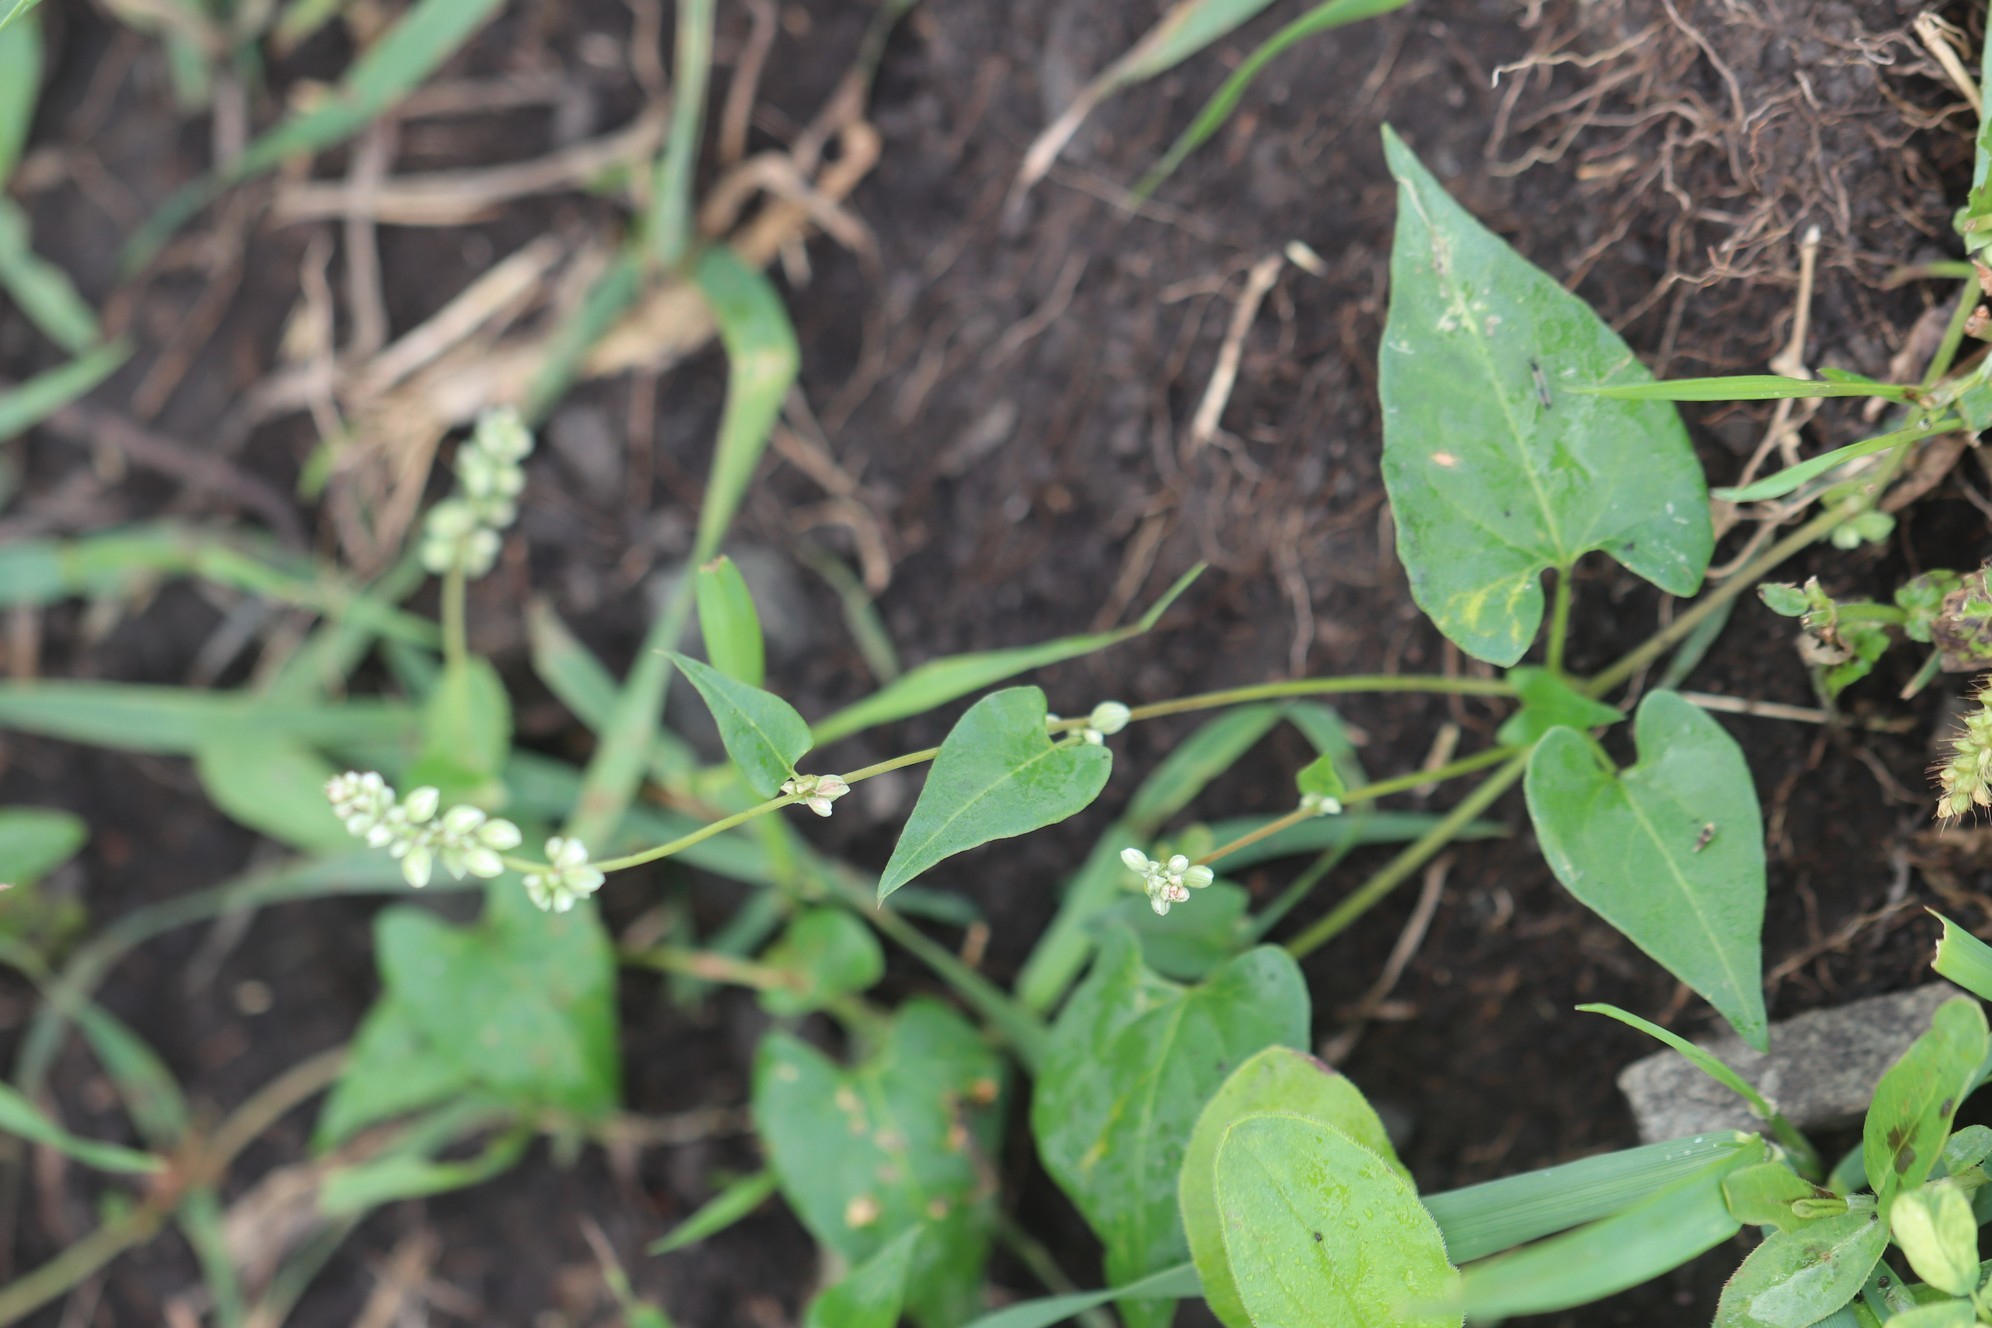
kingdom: Plantae
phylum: Tracheophyta
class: Magnoliopsida
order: Caryophyllales
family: Polygonaceae
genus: Fallopia
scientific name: Fallopia convolvulus
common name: Black bindweed
